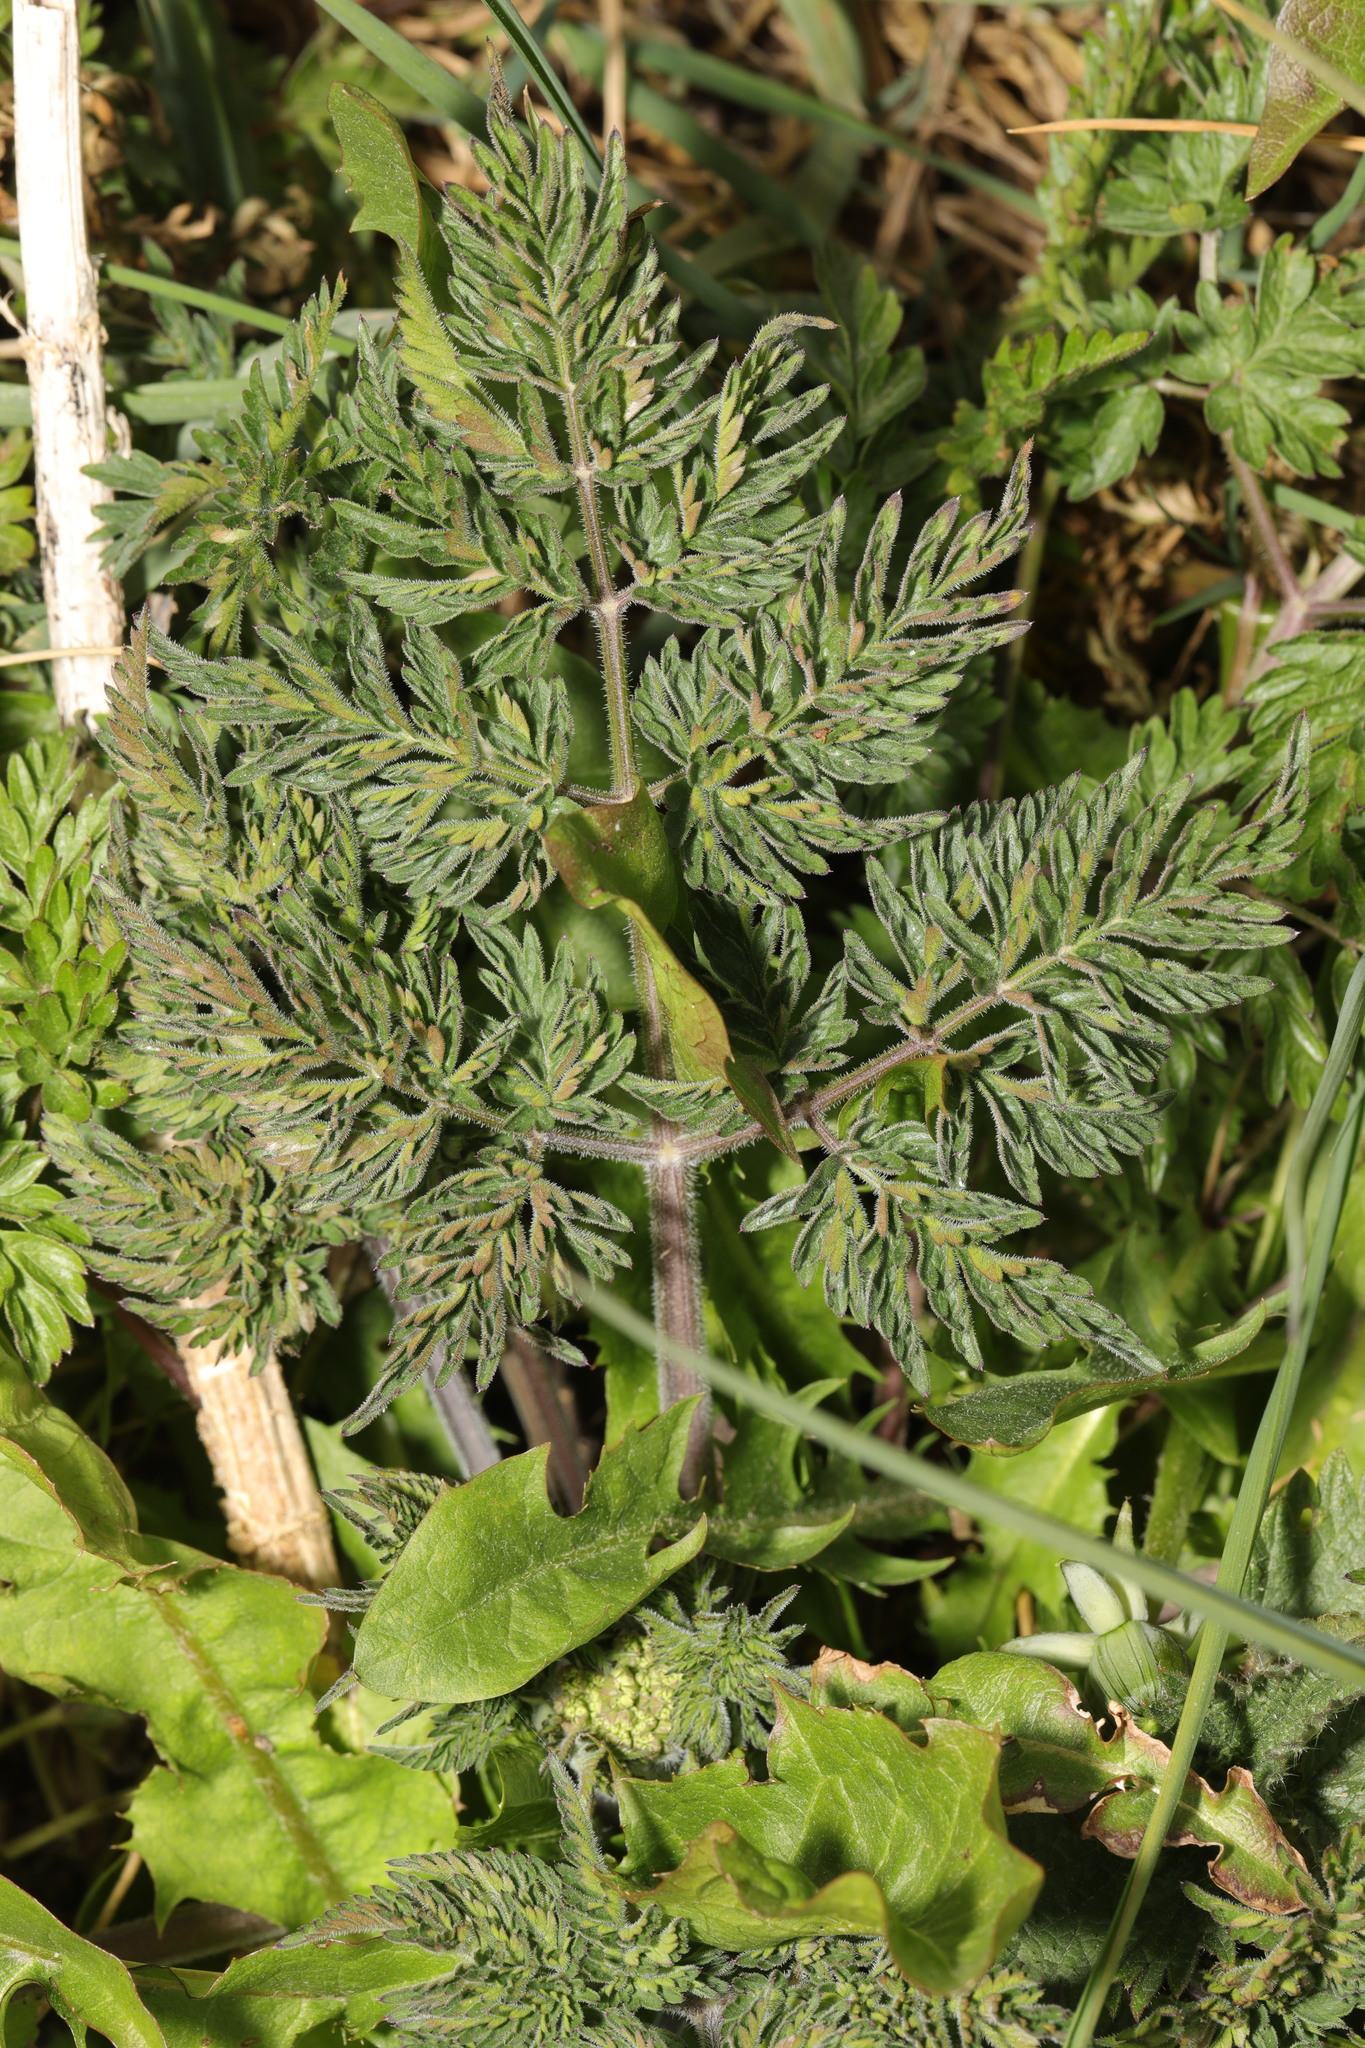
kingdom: Plantae
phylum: Tracheophyta
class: Magnoliopsida
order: Apiales
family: Apiaceae
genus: Anthriscus
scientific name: Anthriscus sylvestris
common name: Cow parsley
